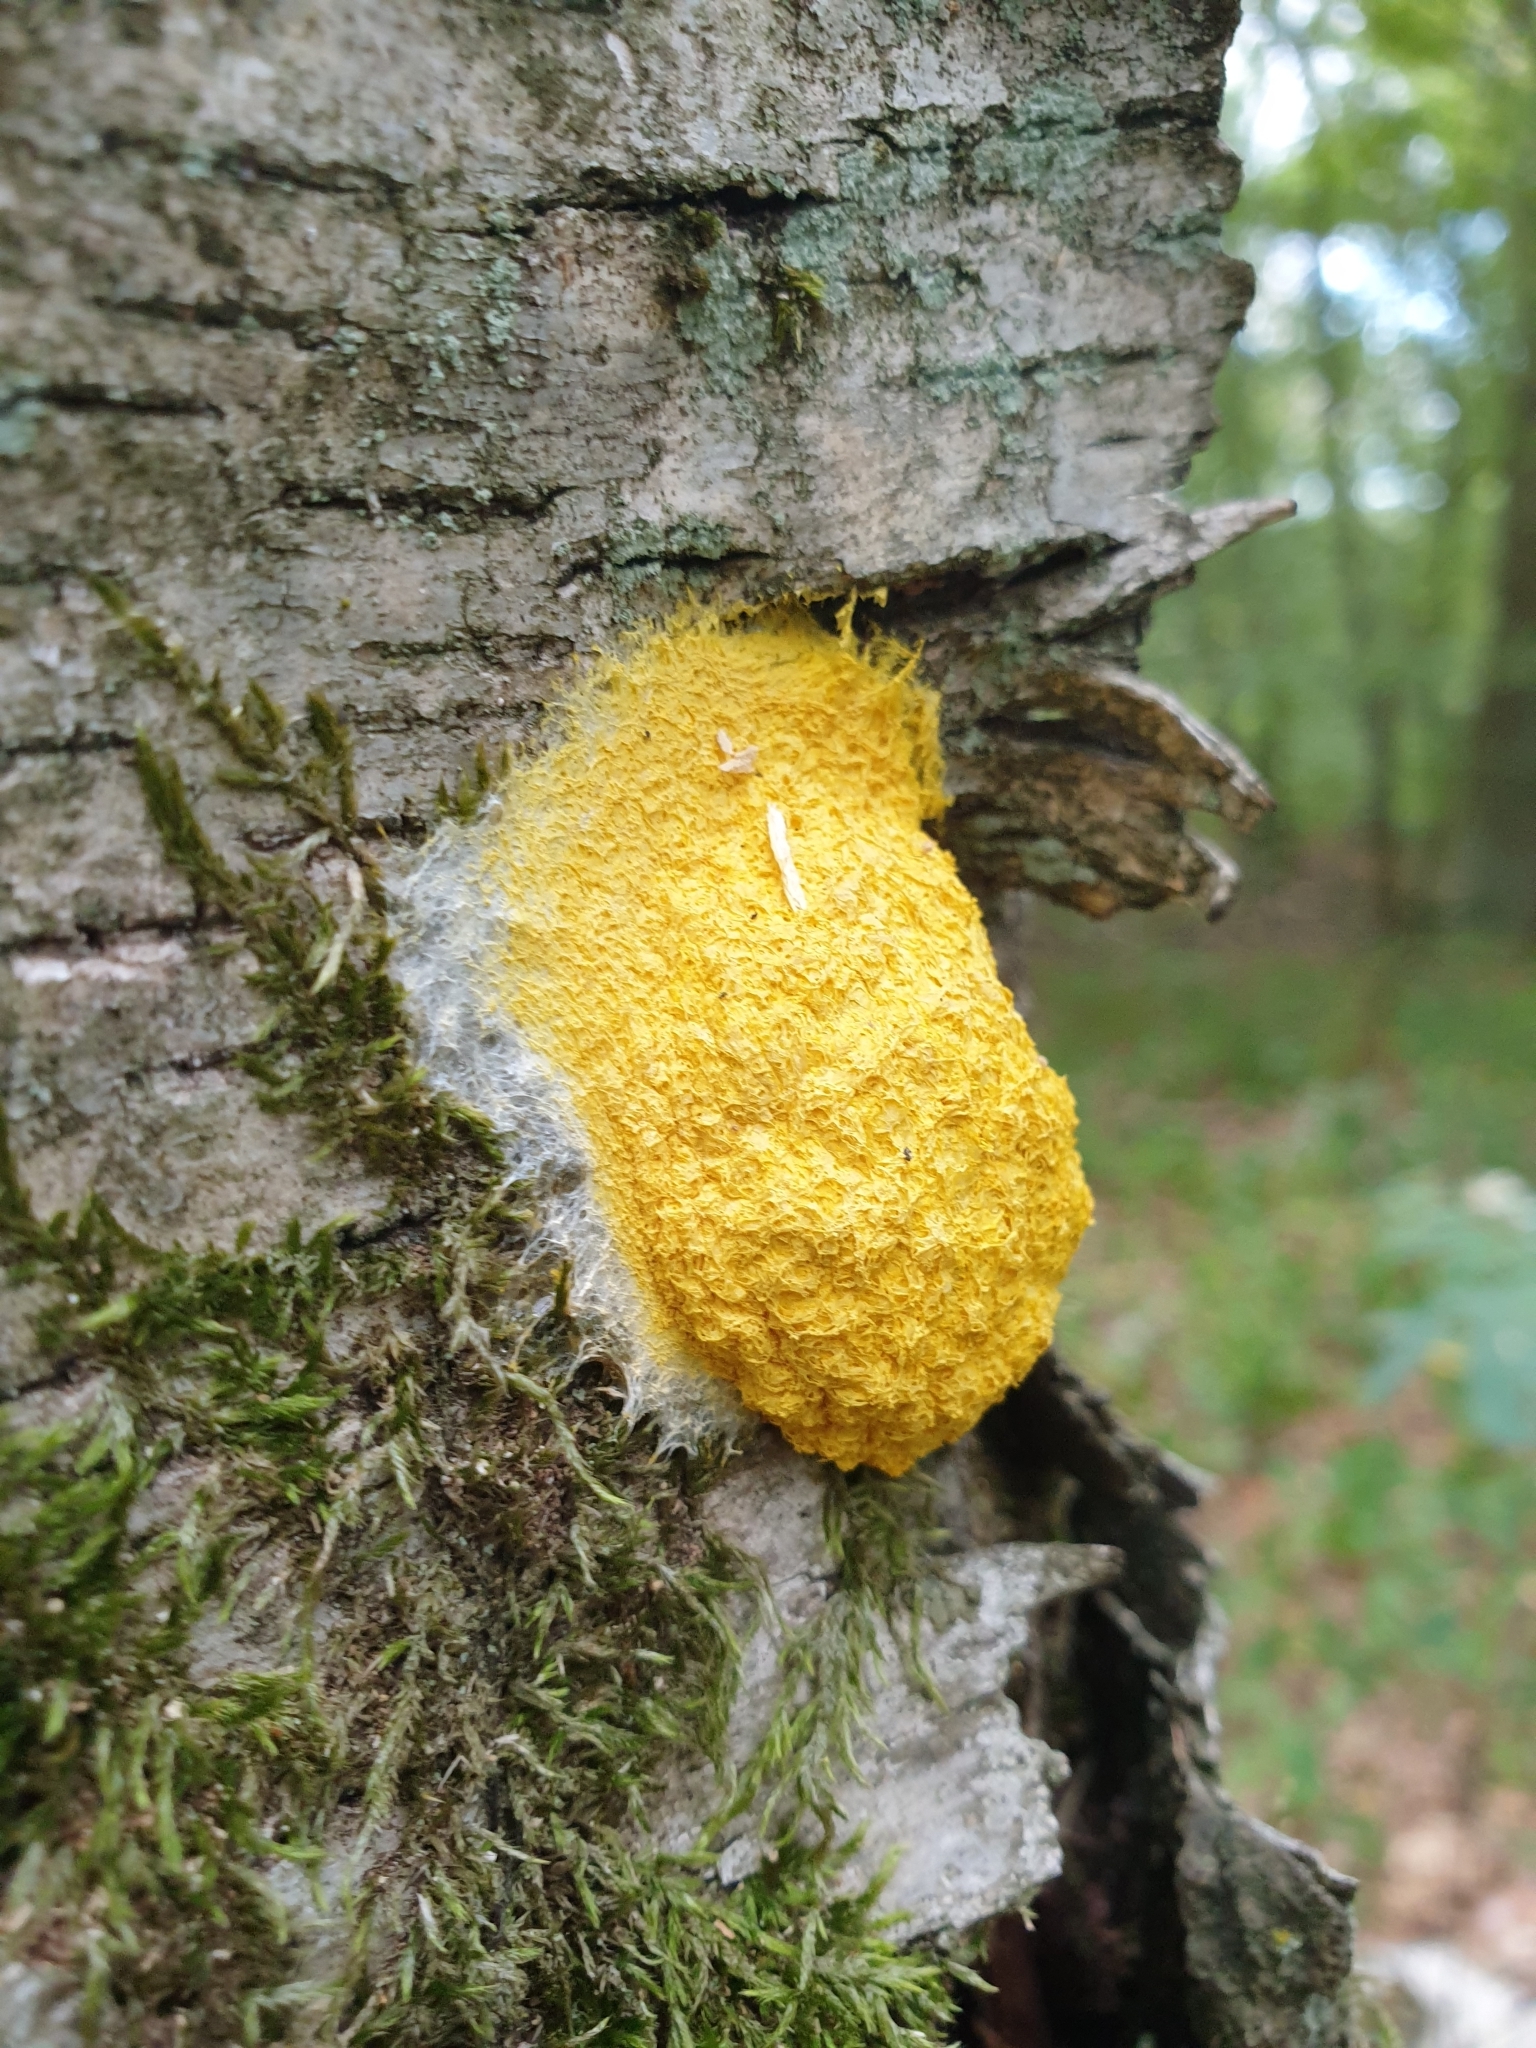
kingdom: Protozoa
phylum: Mycetozoa
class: Myxomycetes
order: Physarales
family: Physaraceae
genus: Fuligo
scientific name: Fuligo septica
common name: Dog vomit slime mold
